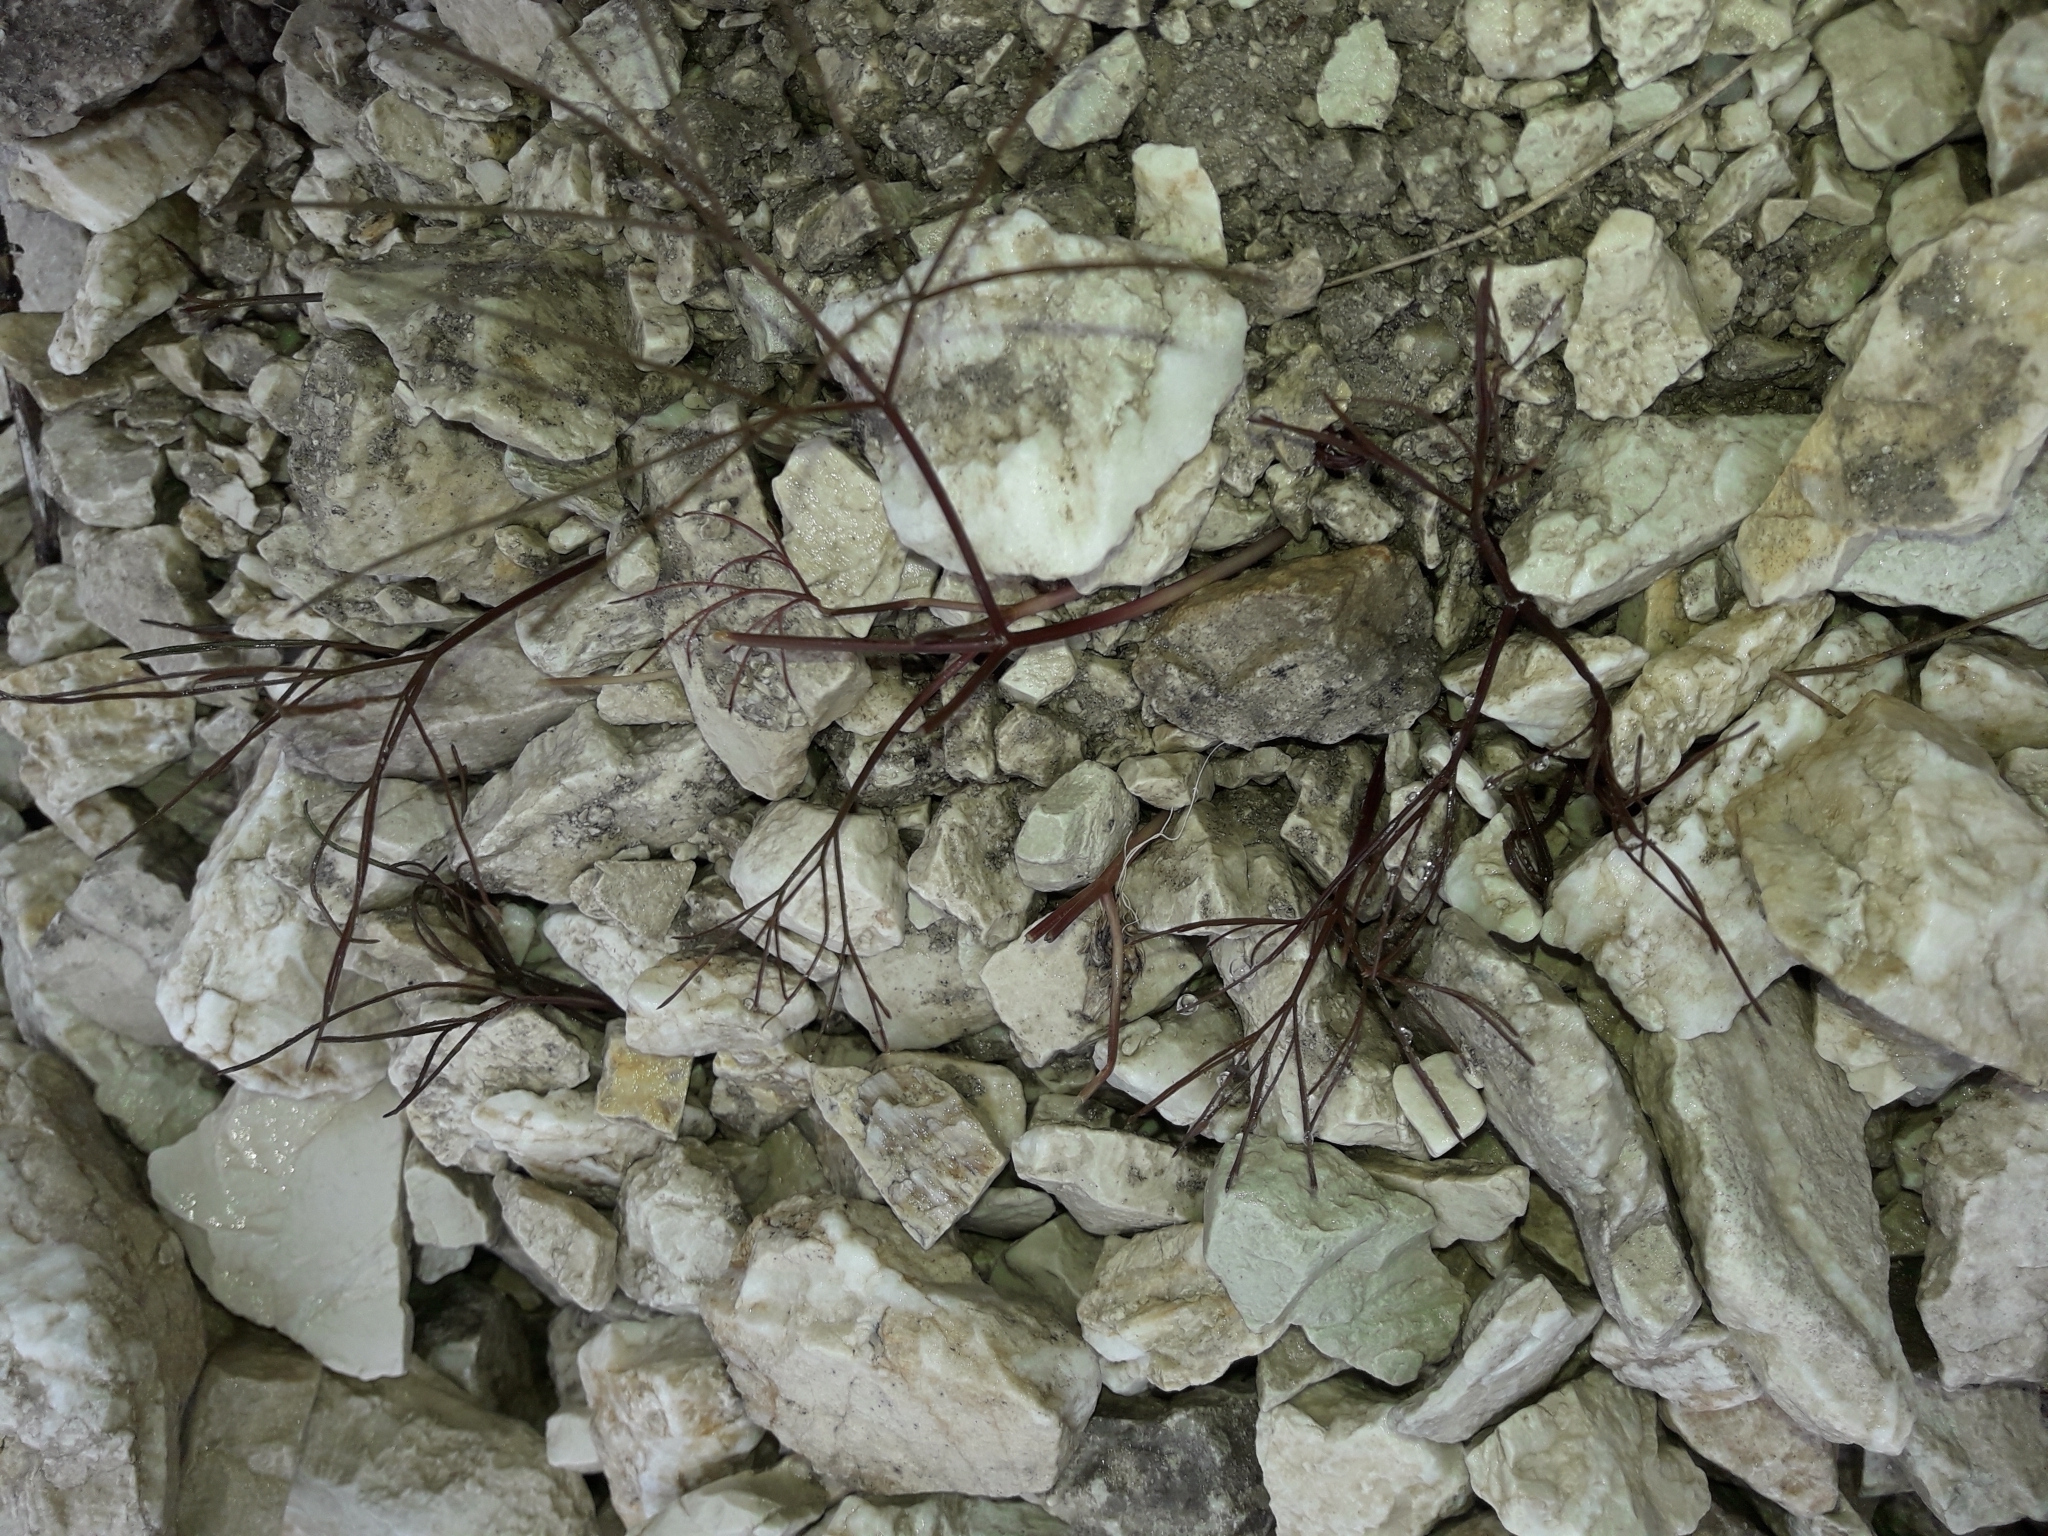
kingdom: Plantae
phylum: Tracheophyta
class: Magnoliopsida
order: Apiales
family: Apiaceae
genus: Anisotome
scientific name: Anisotome filifolia
